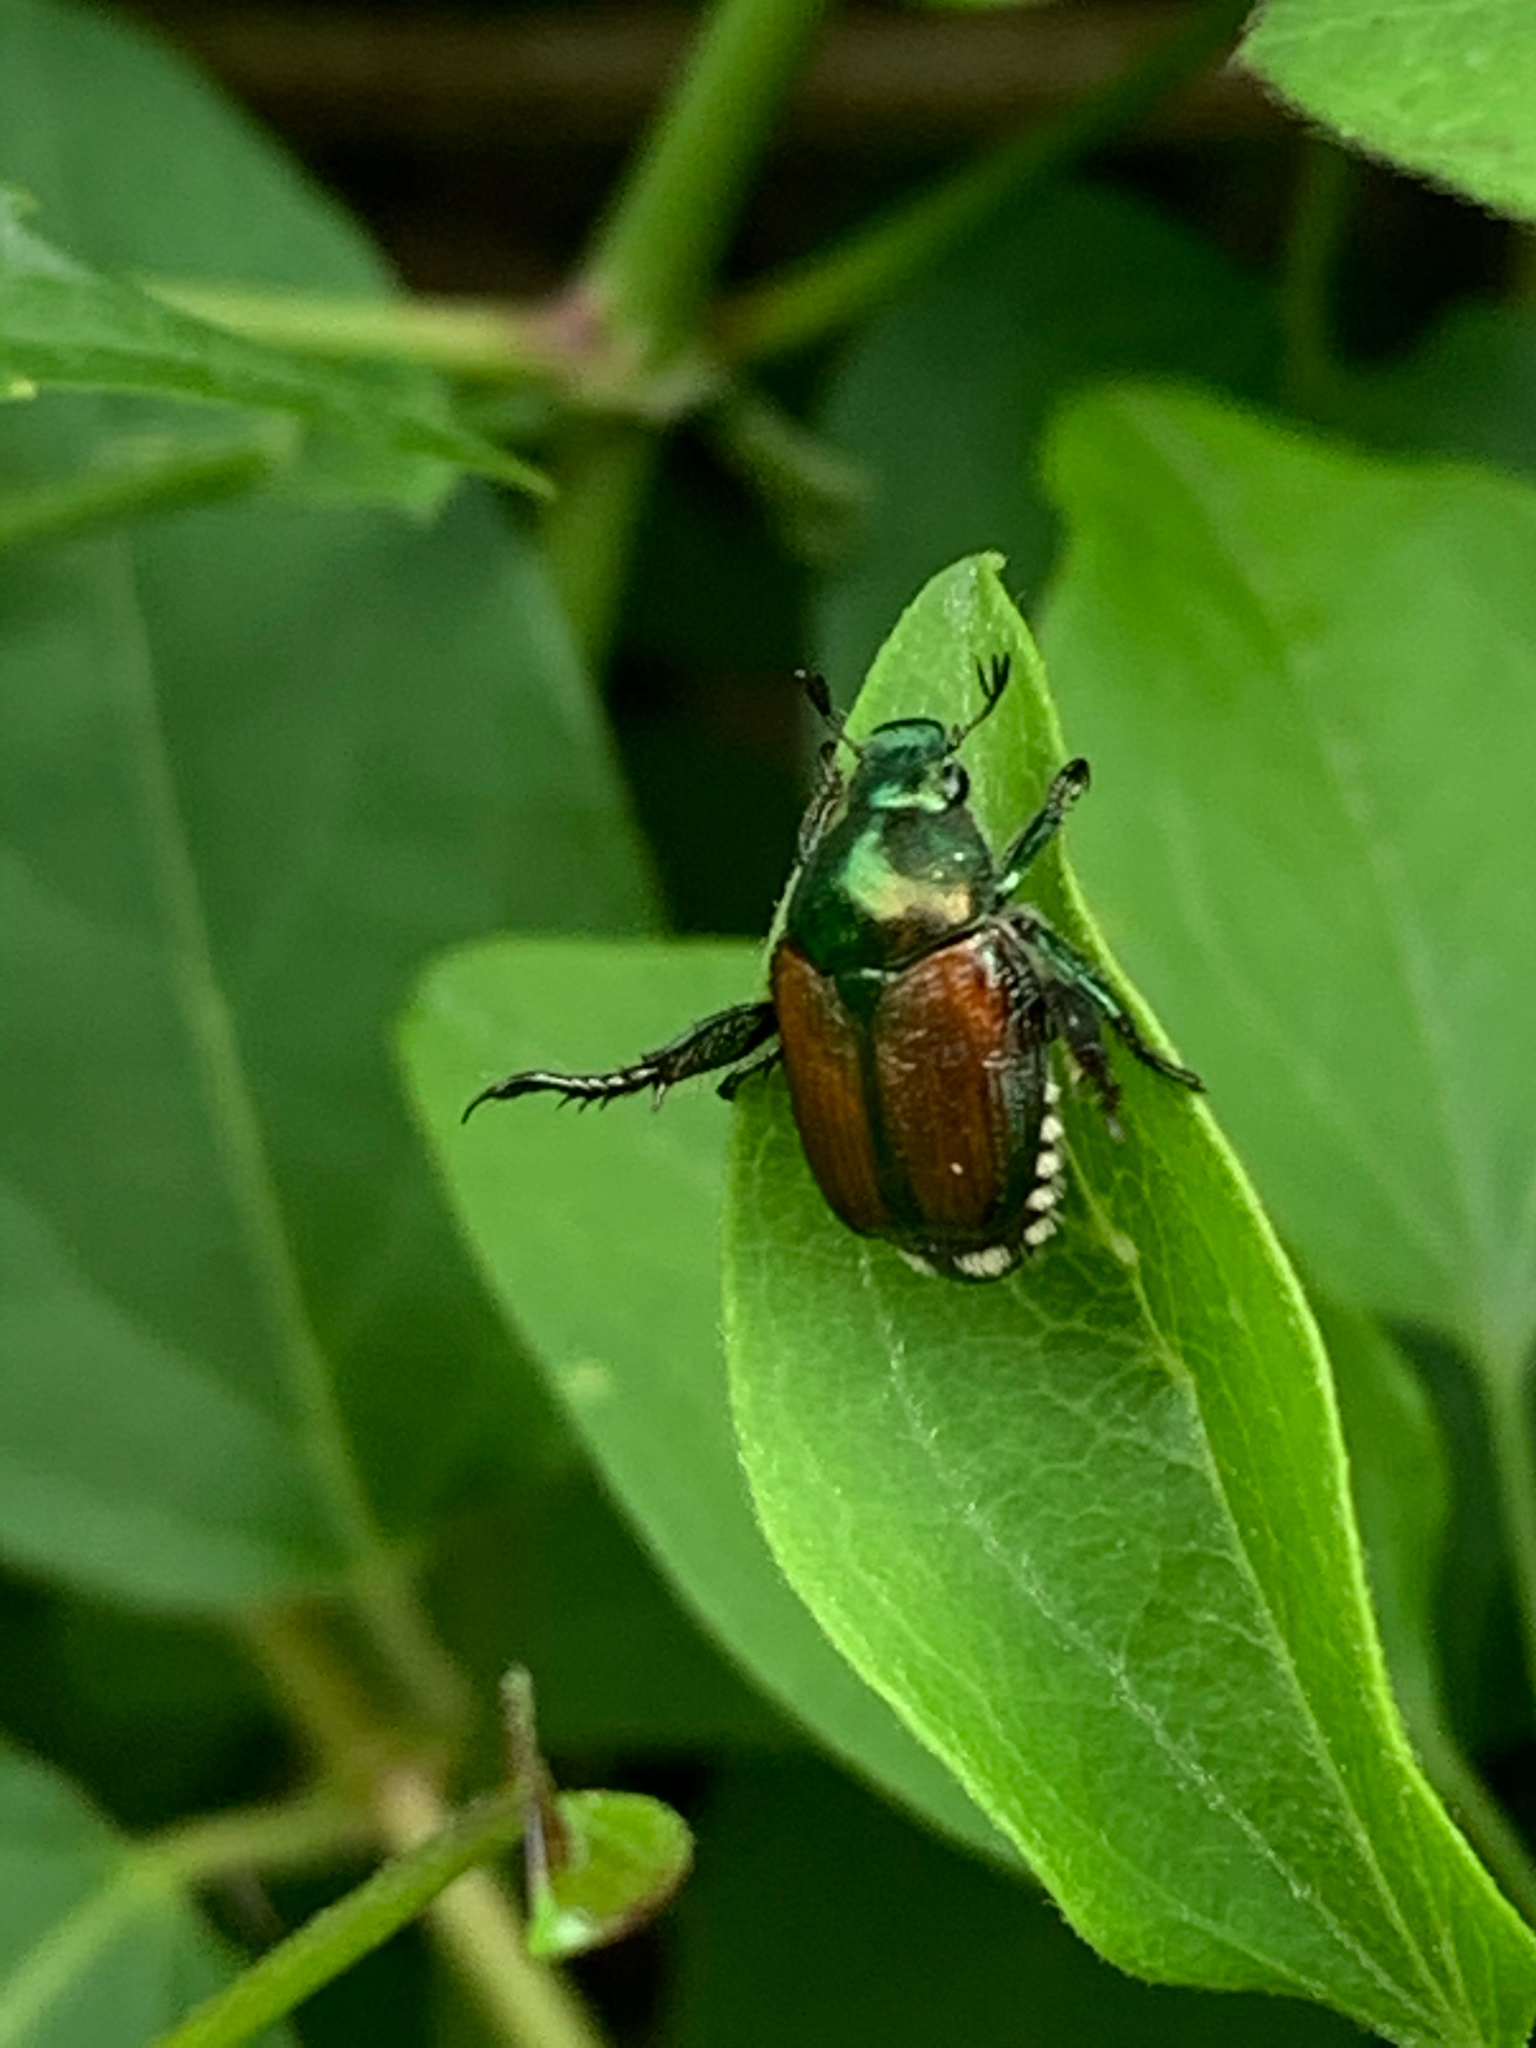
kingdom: Animalia
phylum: Arthropoda
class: Insecta
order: Coleoptera
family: Scarabaeidae
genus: Popillia
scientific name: Popillia japonica
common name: Japanese beetle
